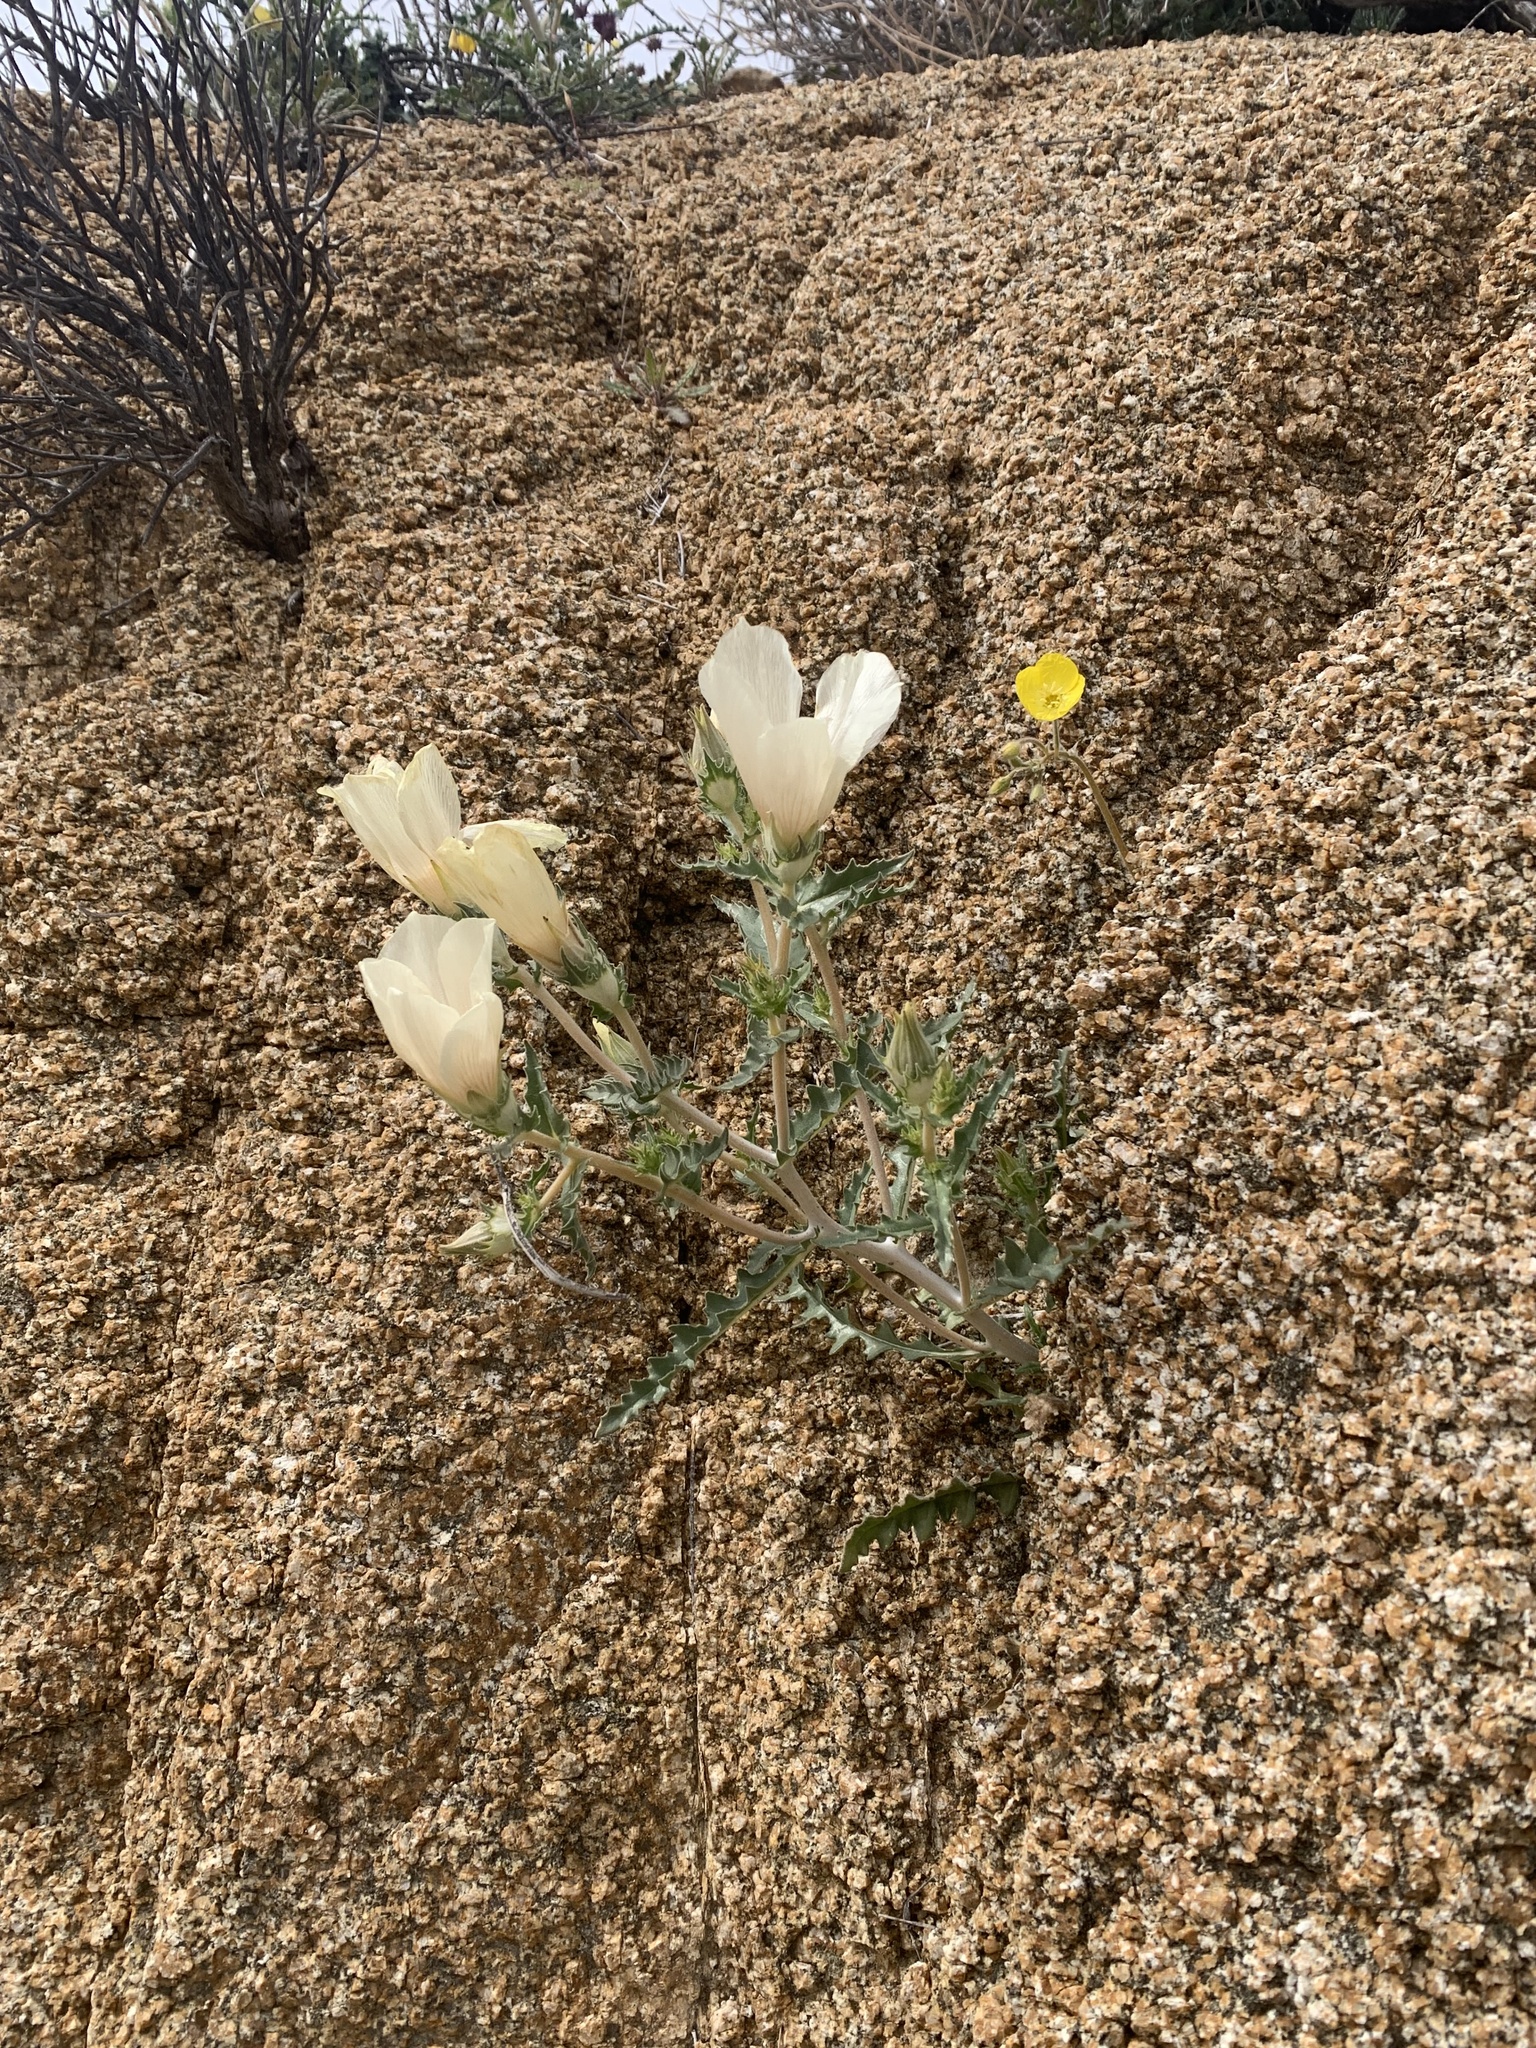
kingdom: Plantae
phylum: Tracheophyta
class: Magnoliopsida
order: Cornales
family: Loasaceae
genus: Mentzelia
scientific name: Mentzelia involucrata
